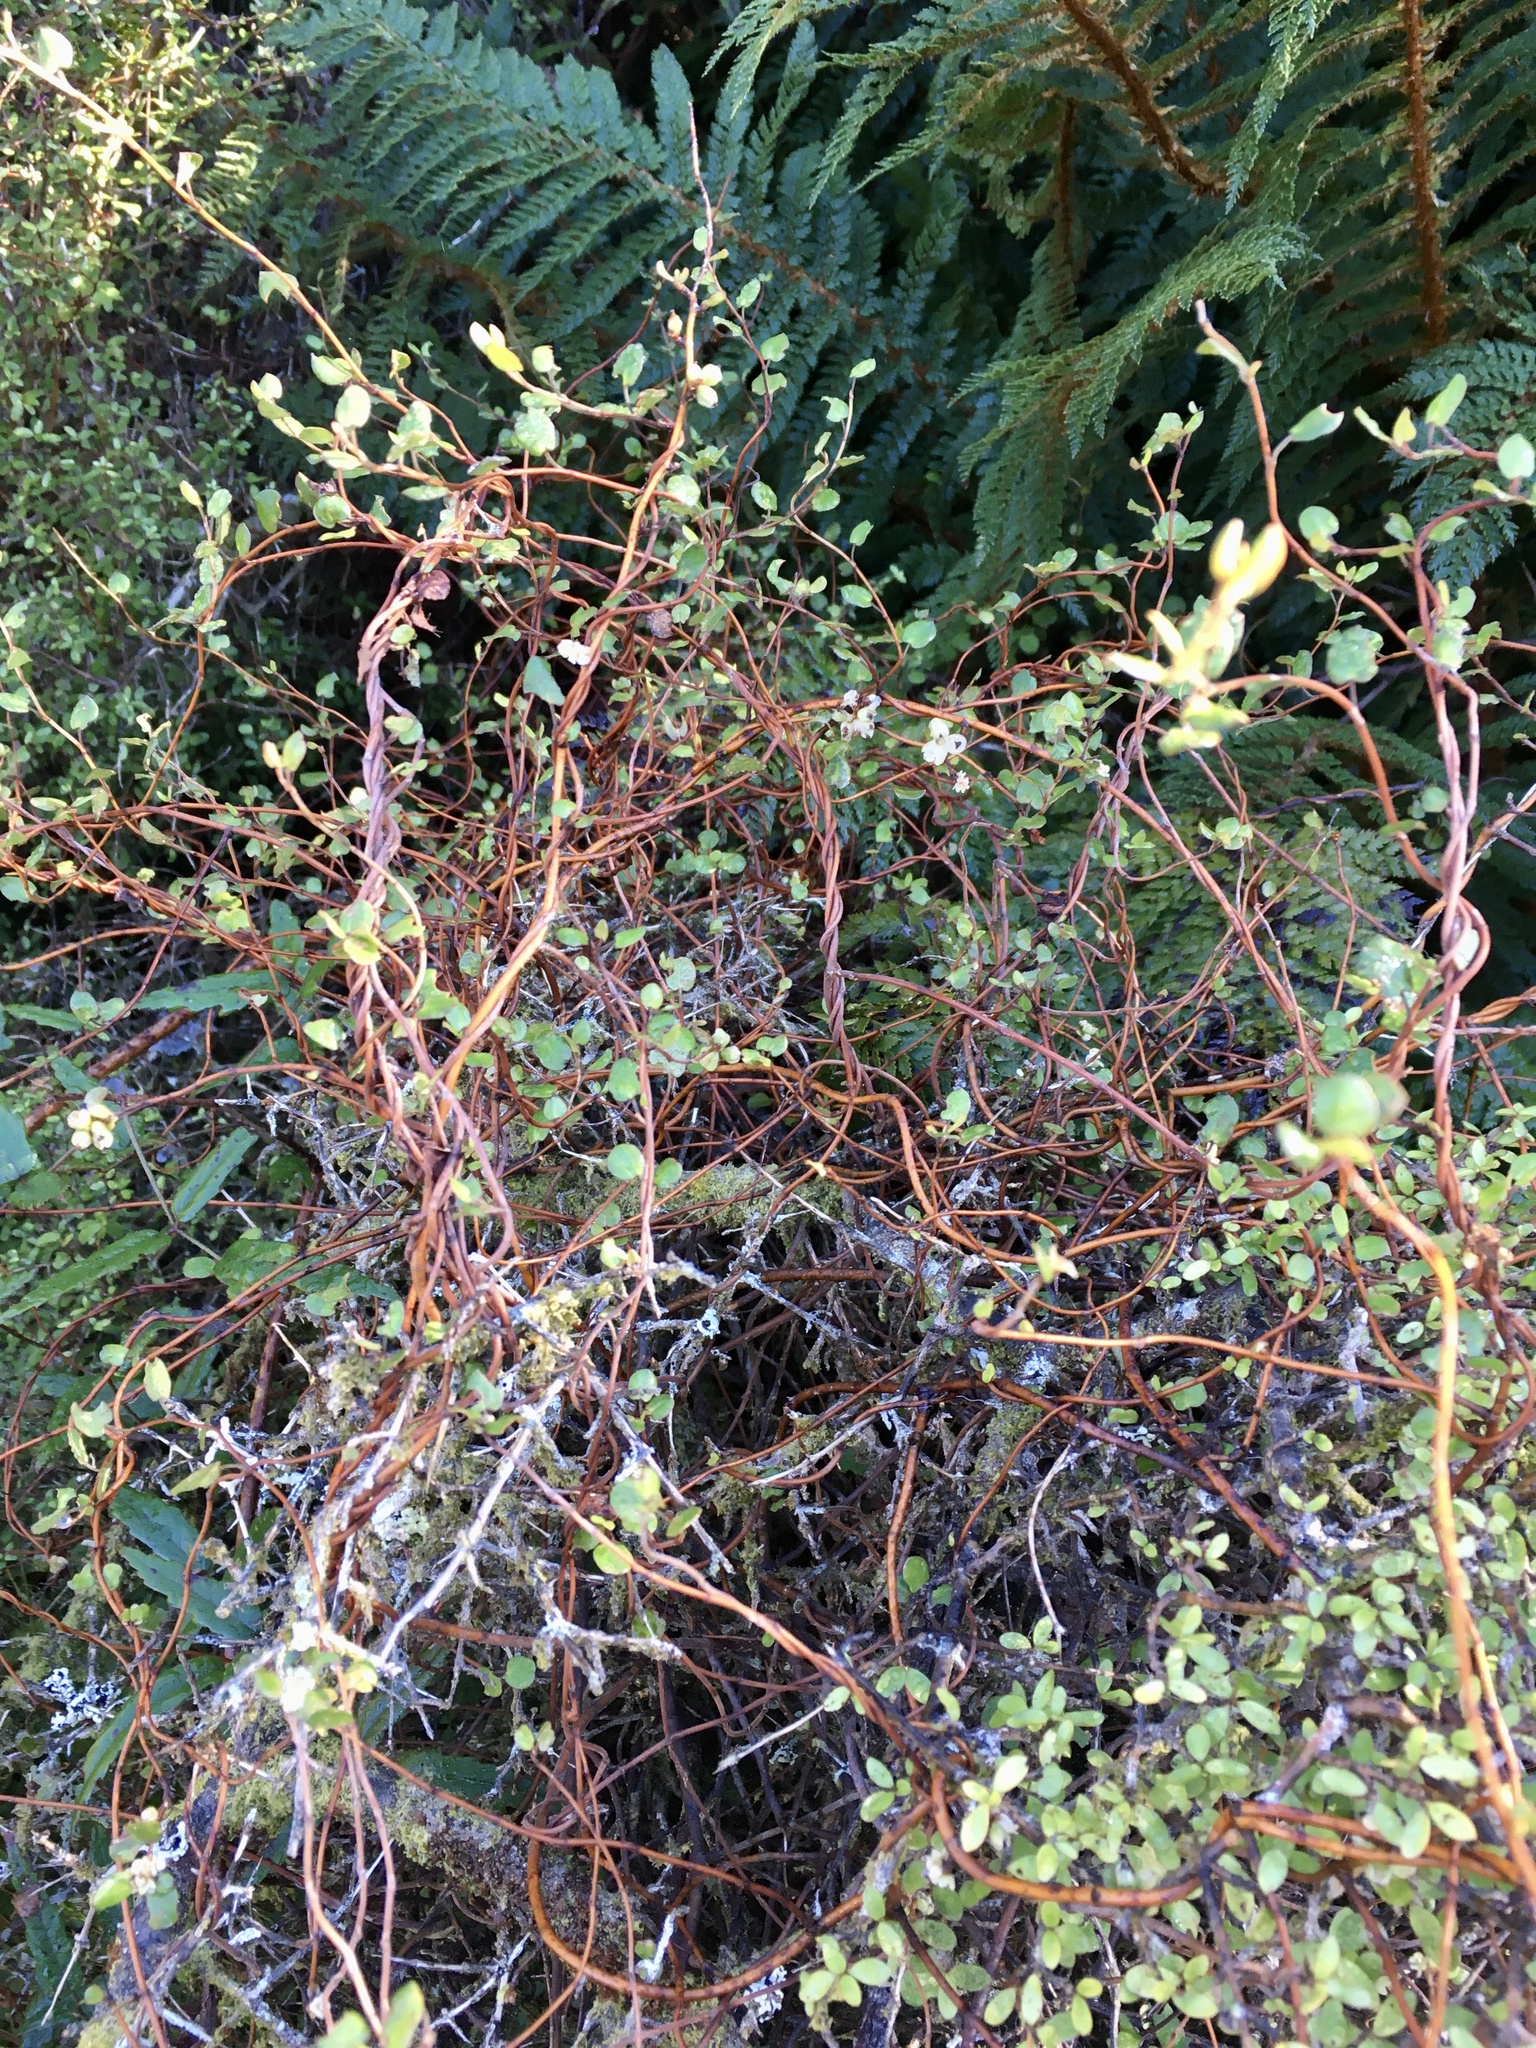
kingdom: Plantae
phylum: Tracheophyta
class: Magnoliopsida
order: Caryophyllales
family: Polygonaceae
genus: Muehlenbeckia
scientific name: Muehlenbeckia complexa
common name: Wireplant
